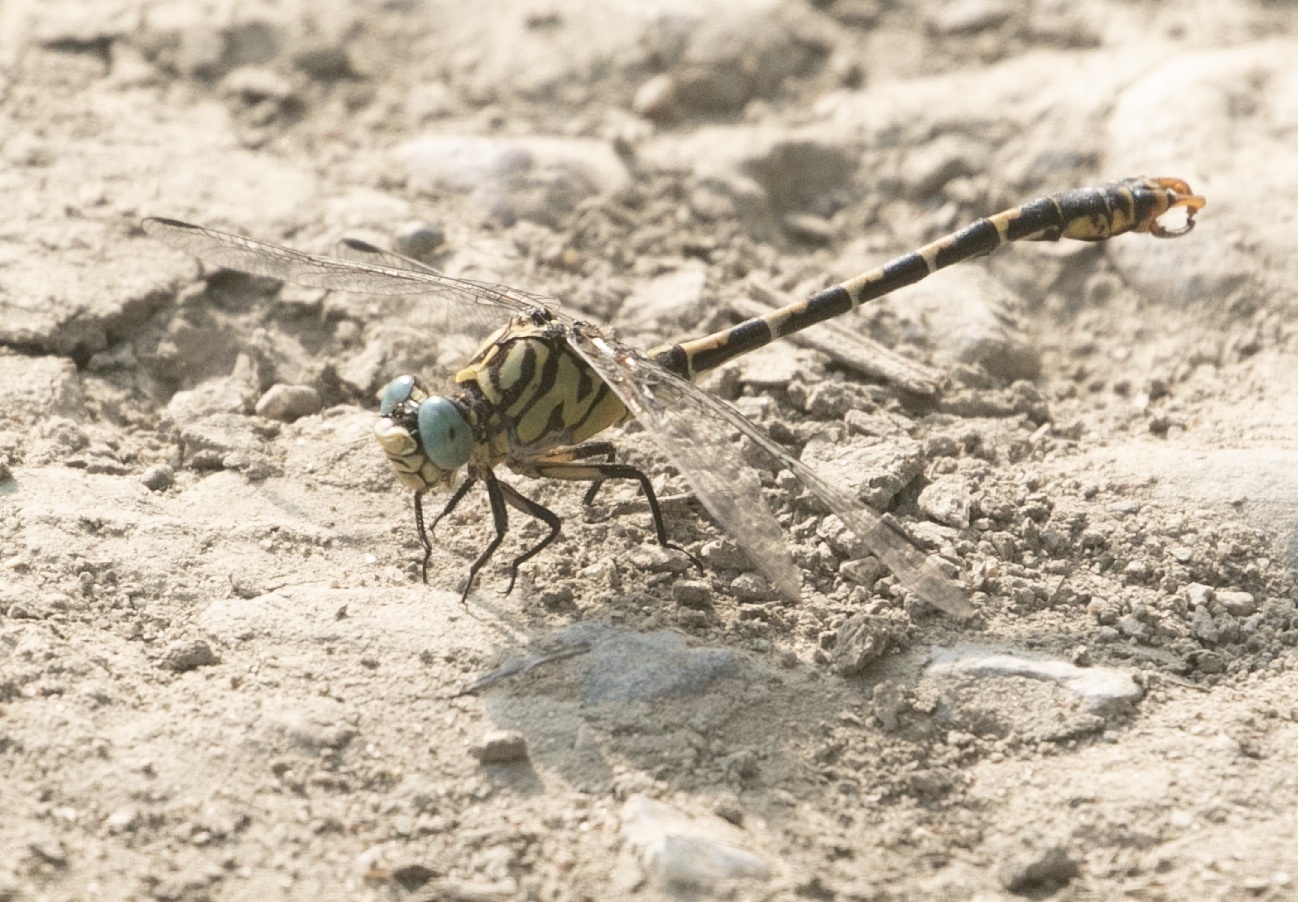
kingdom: Animalia
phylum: Arthropoda
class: Insecta
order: Odonata
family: Gomphidae
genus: Onychogomphus
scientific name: Onychogomphus forcipatus
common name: Small pincertail
